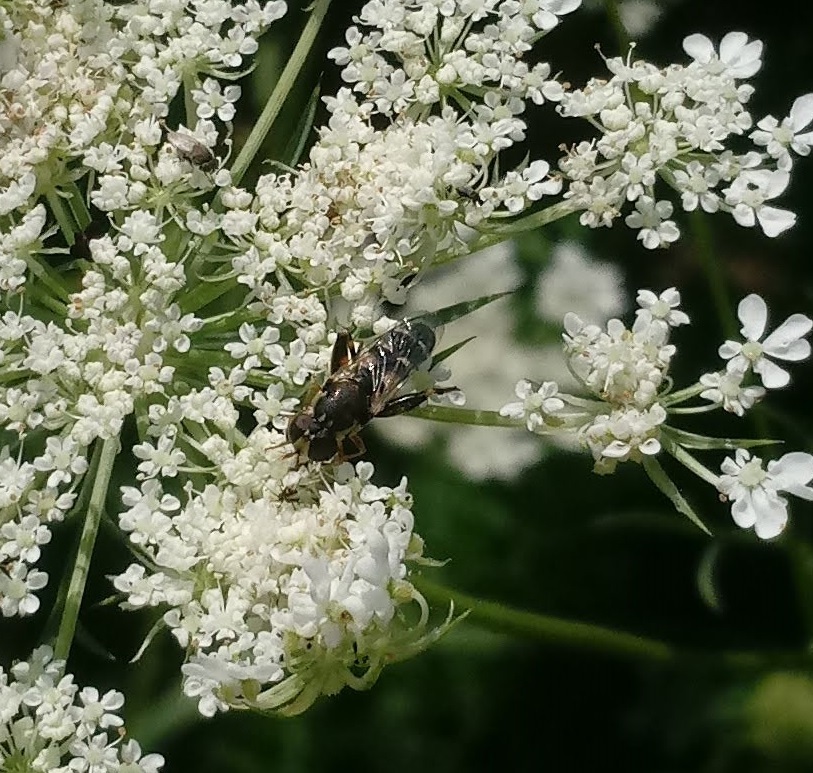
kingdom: Animalia
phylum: Arthropoda
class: Insecta
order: Diptera
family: Syrphidae
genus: Syritta
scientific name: Syritta pipiens
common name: Hover fly
